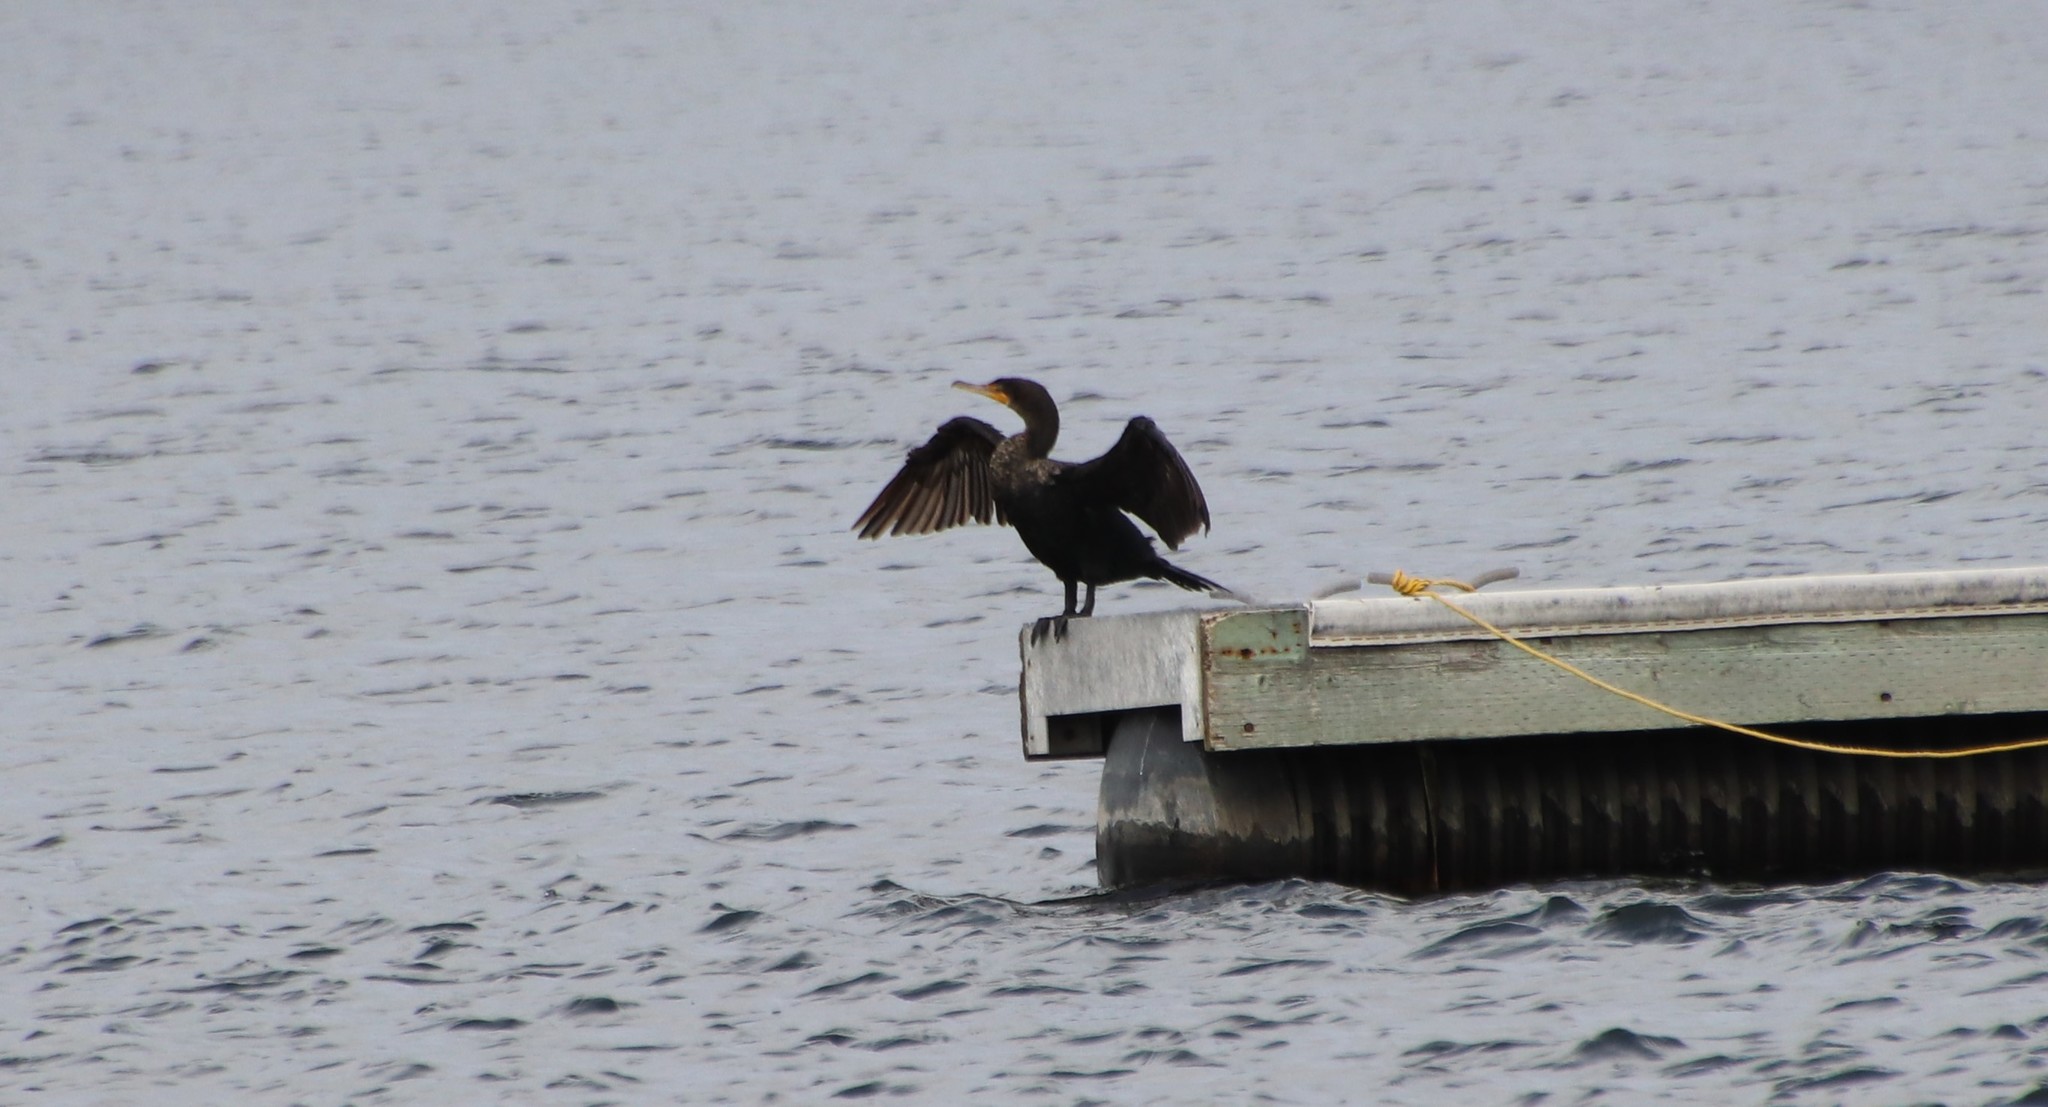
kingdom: Animalia
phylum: Chordata
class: Aves
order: Suliformes
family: Phalacrocoracidae
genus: Phalacrocorax
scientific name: Phalacrocorax auritus
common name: Double-crested cormorant
